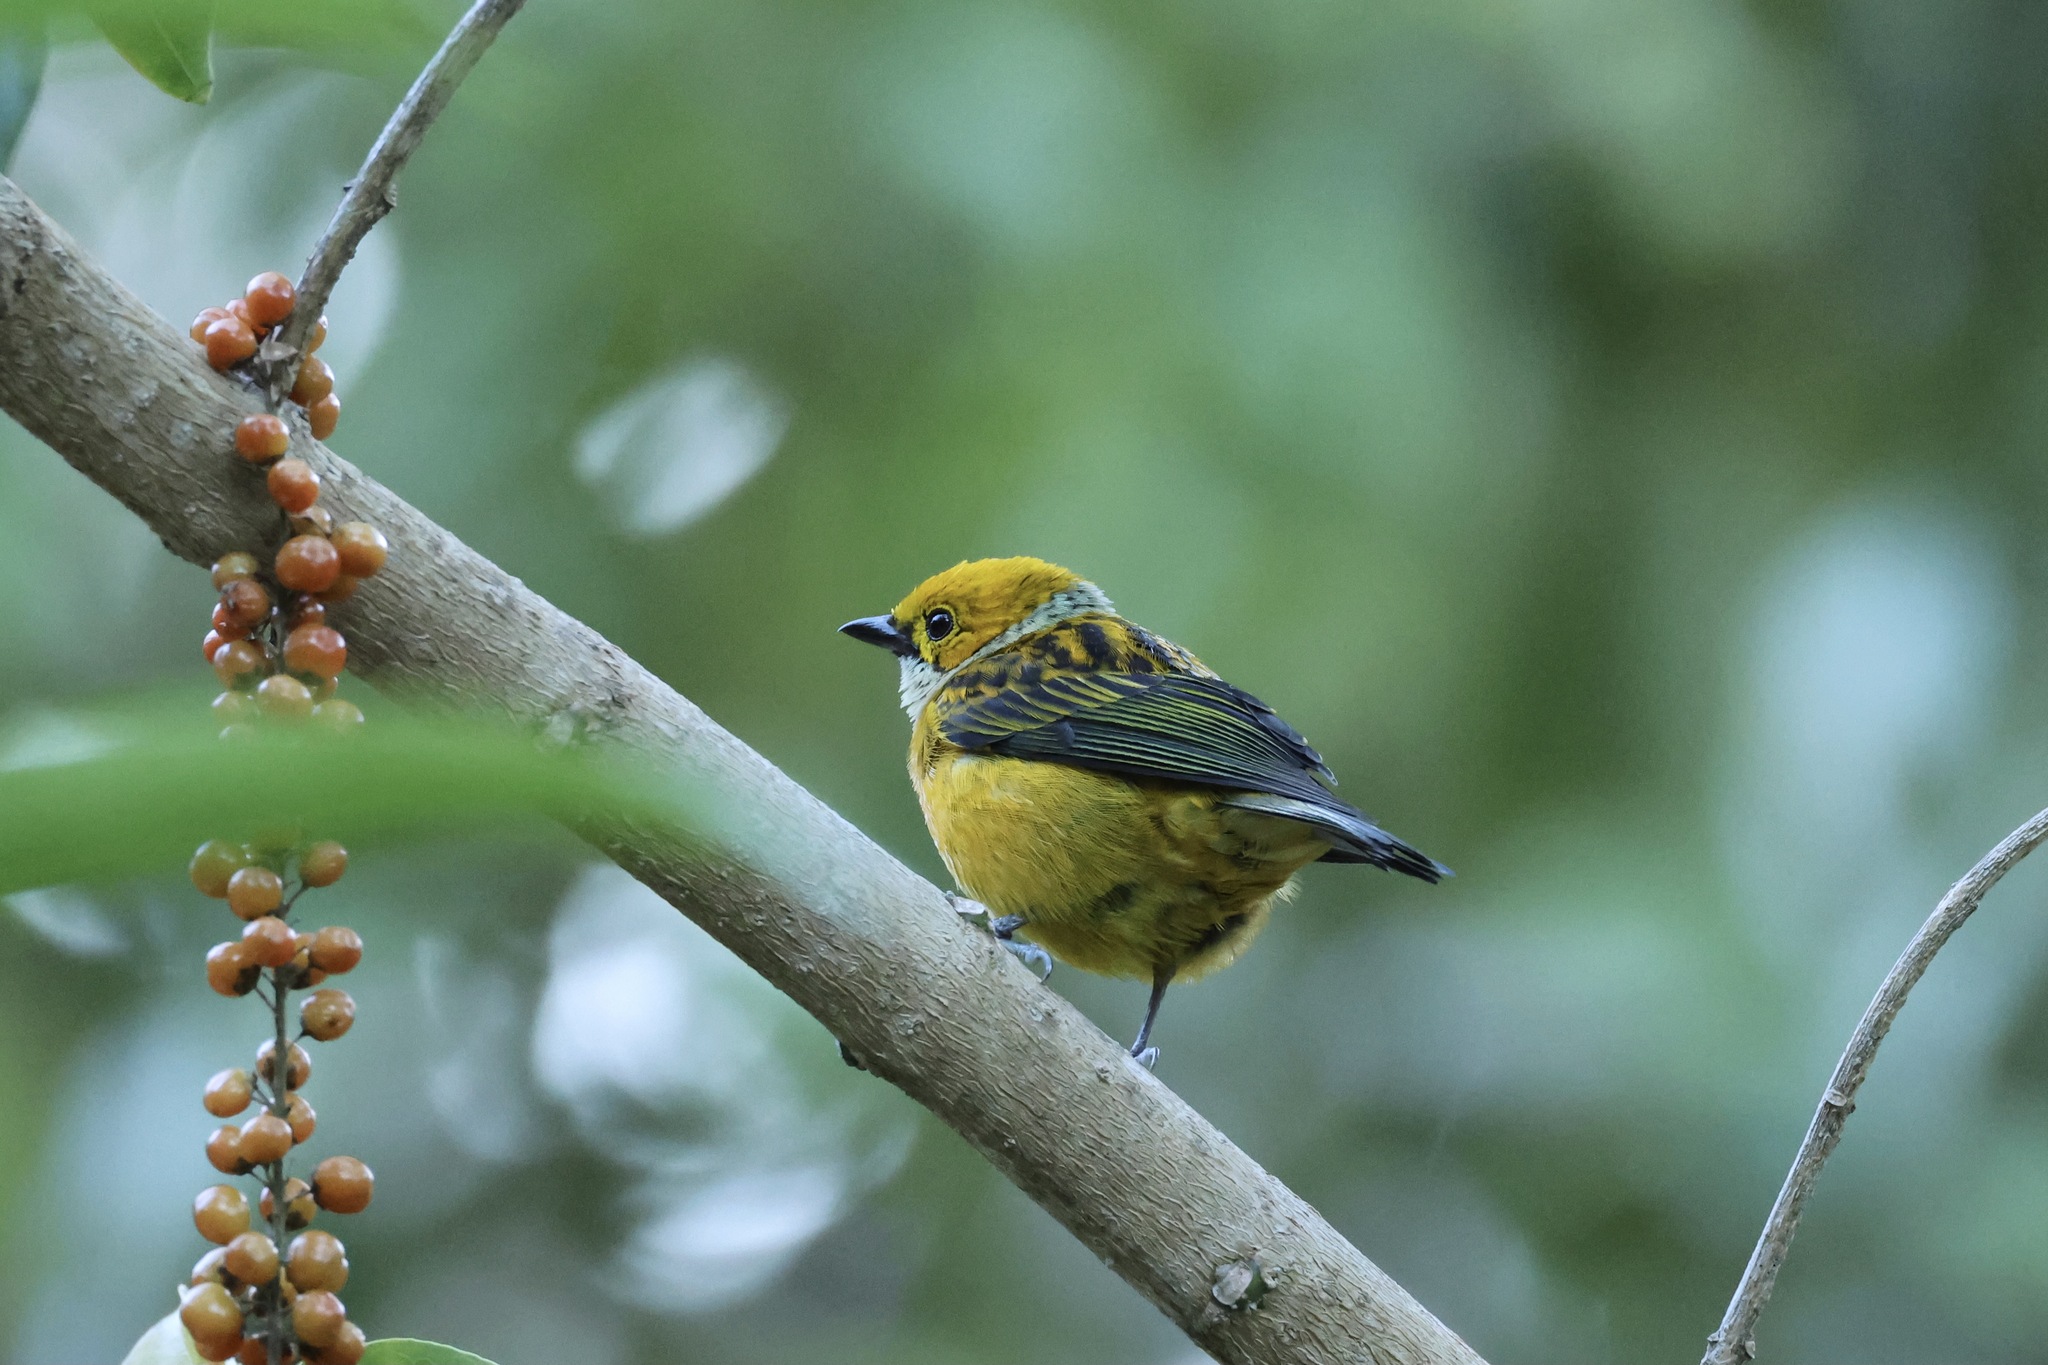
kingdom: Animalia
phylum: Chordata
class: Aves
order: Passeriformes
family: Thraupidae
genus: Tangara
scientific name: Tangara icterocephala
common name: Silver-throated tanager
